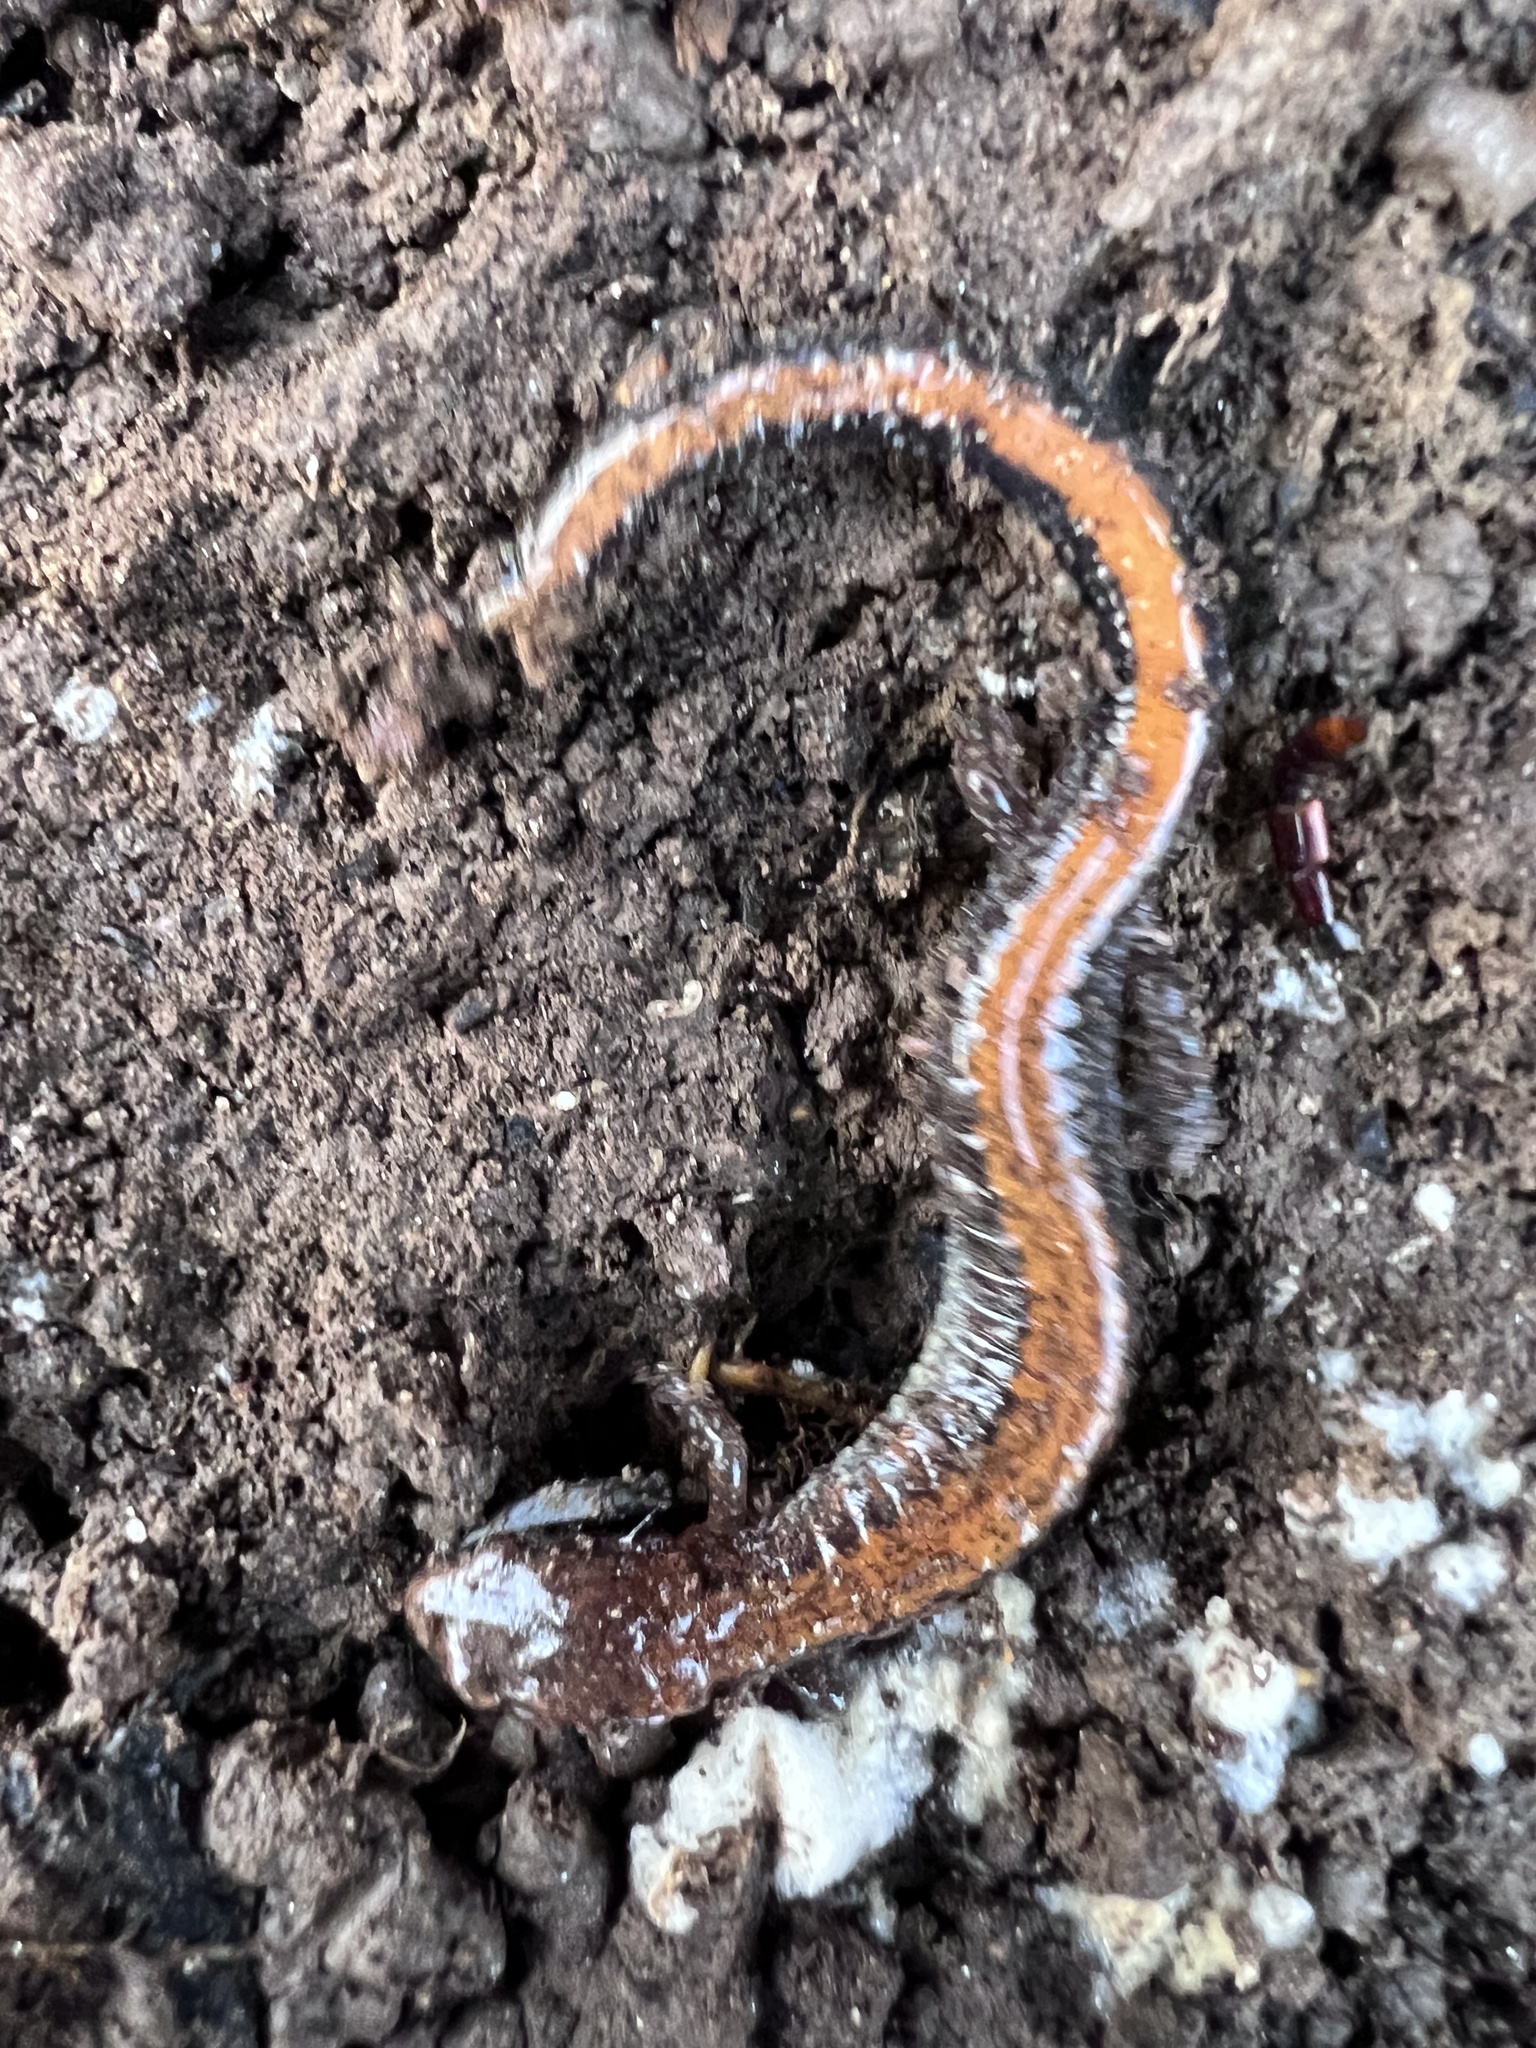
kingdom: Animalia
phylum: Chordata
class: Amphibia
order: Caudata
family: Plethodontidae
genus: Plethodon
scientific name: Plethodon cinereus
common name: Redback salamander
